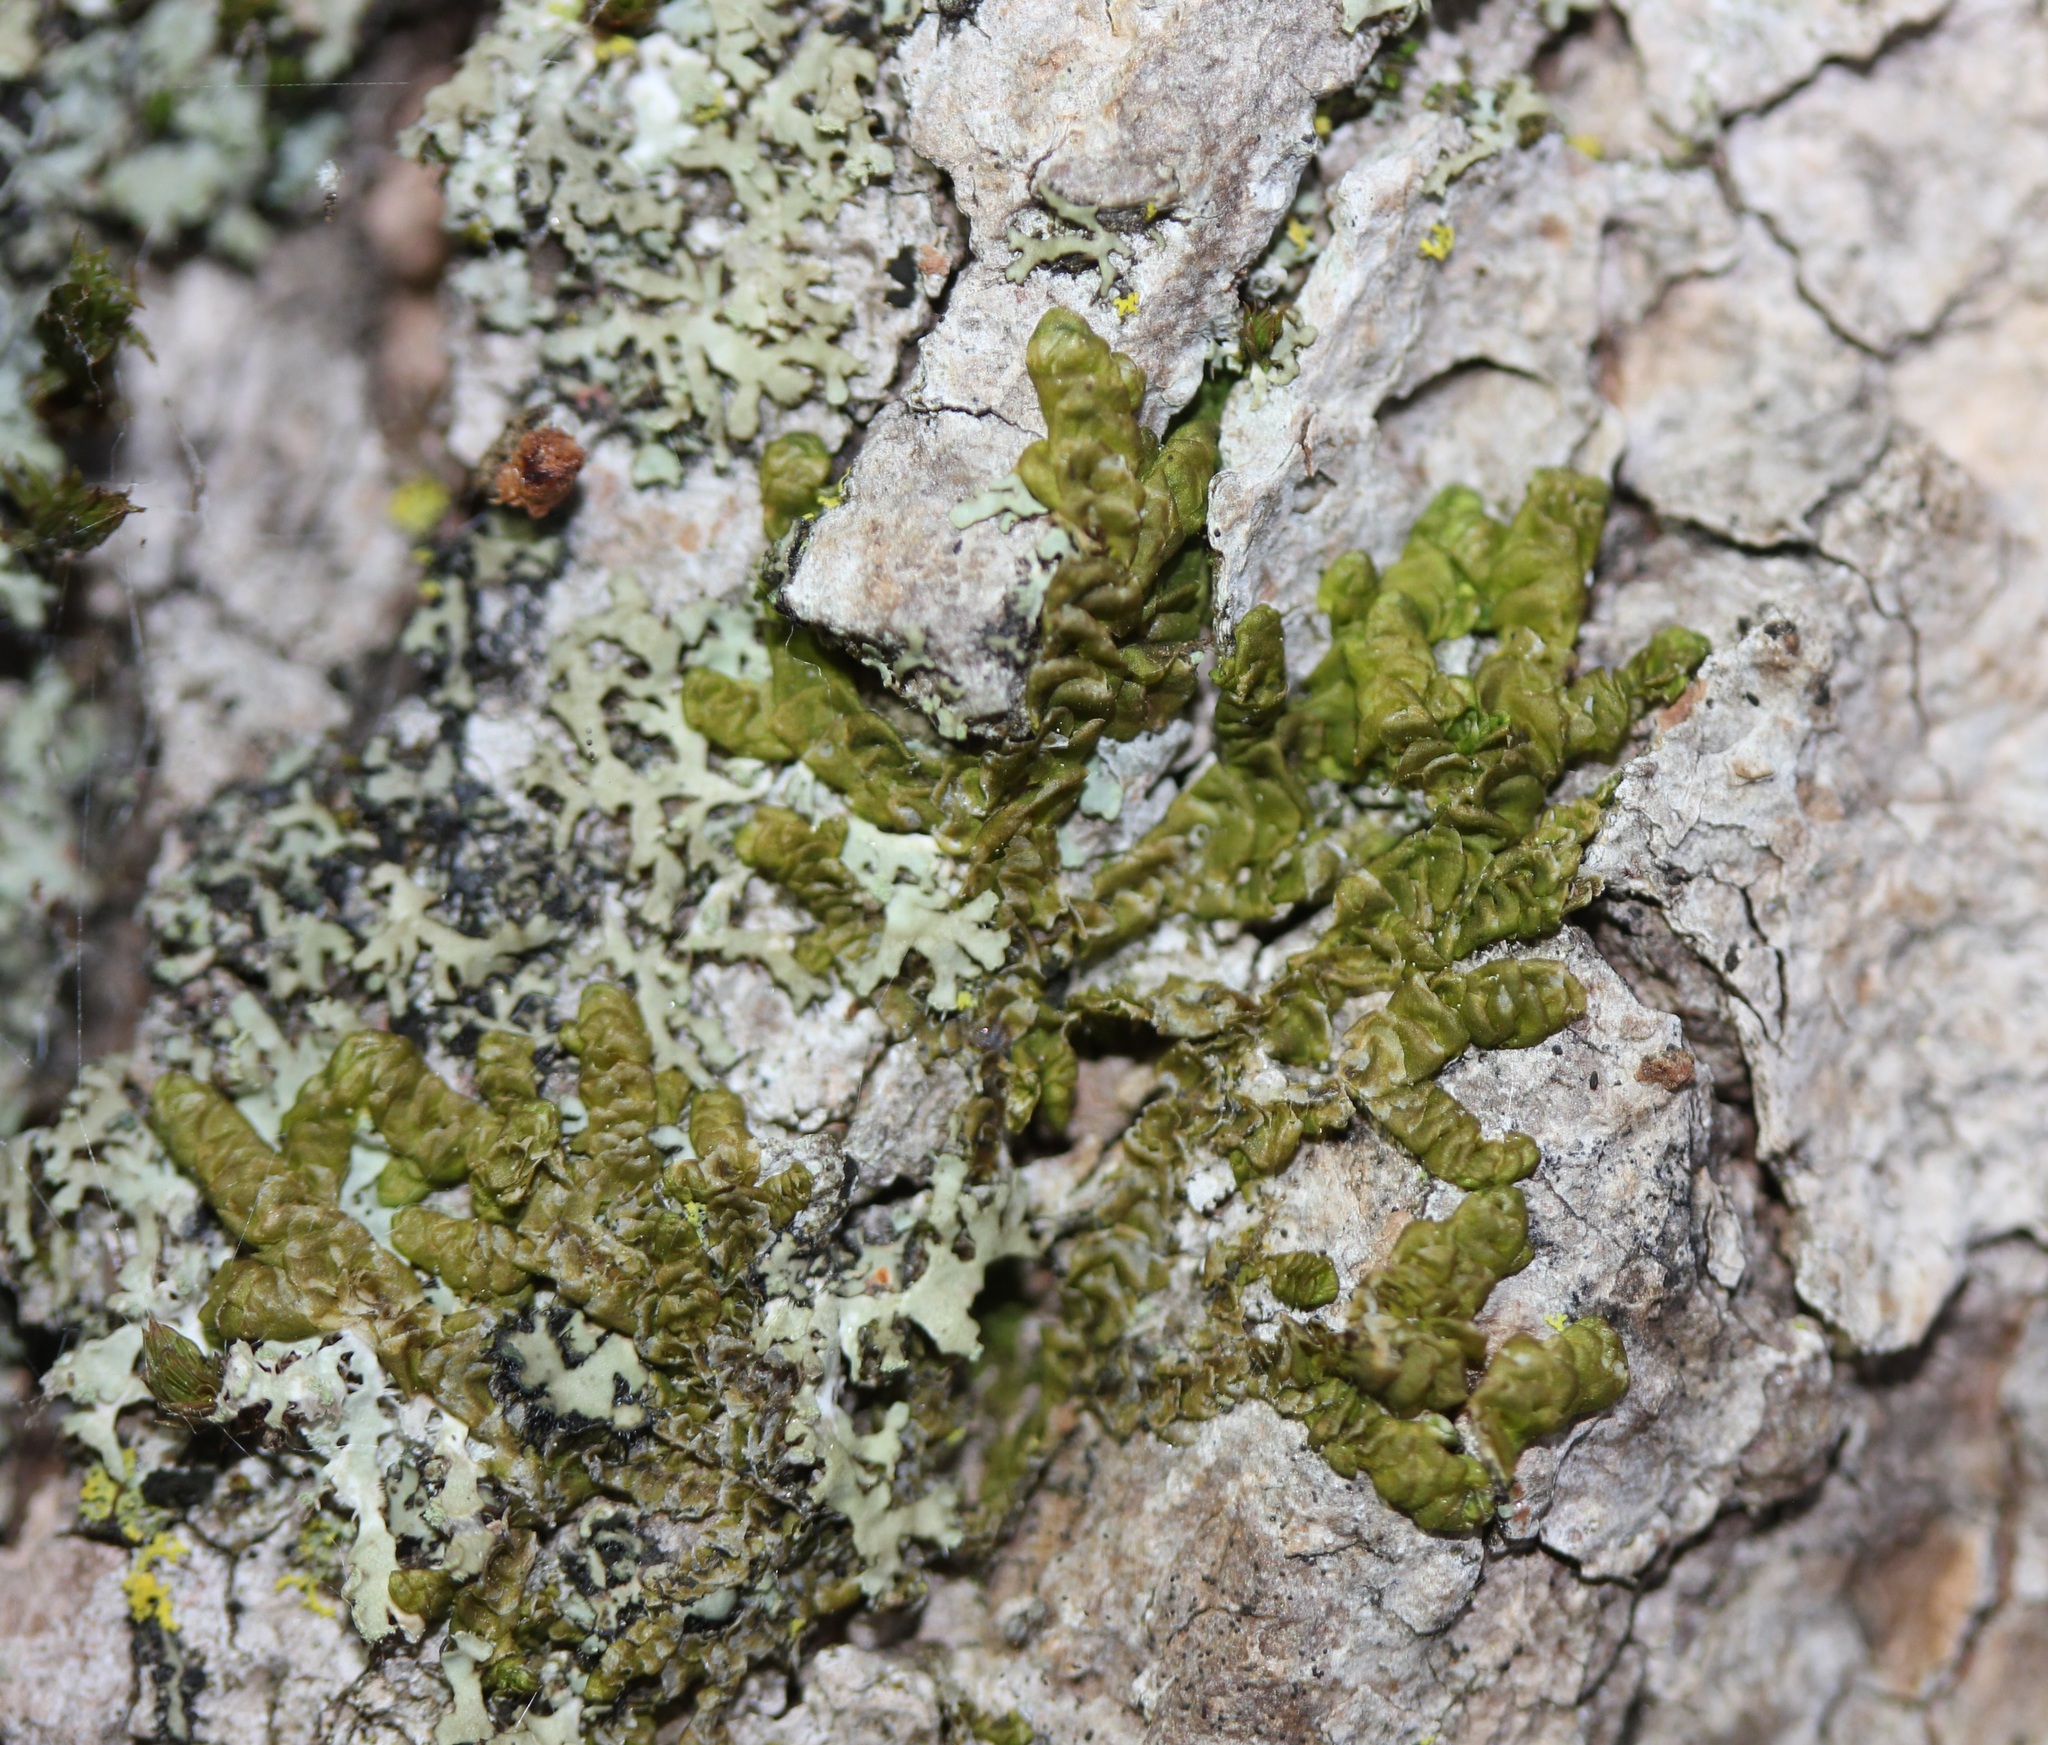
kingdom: Plantae
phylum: Marchantiophyta
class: Jungermanniopsida
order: Porellales
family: Radulaceae
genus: Radula
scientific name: Radula complanata
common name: Flat-leaved scalewort
